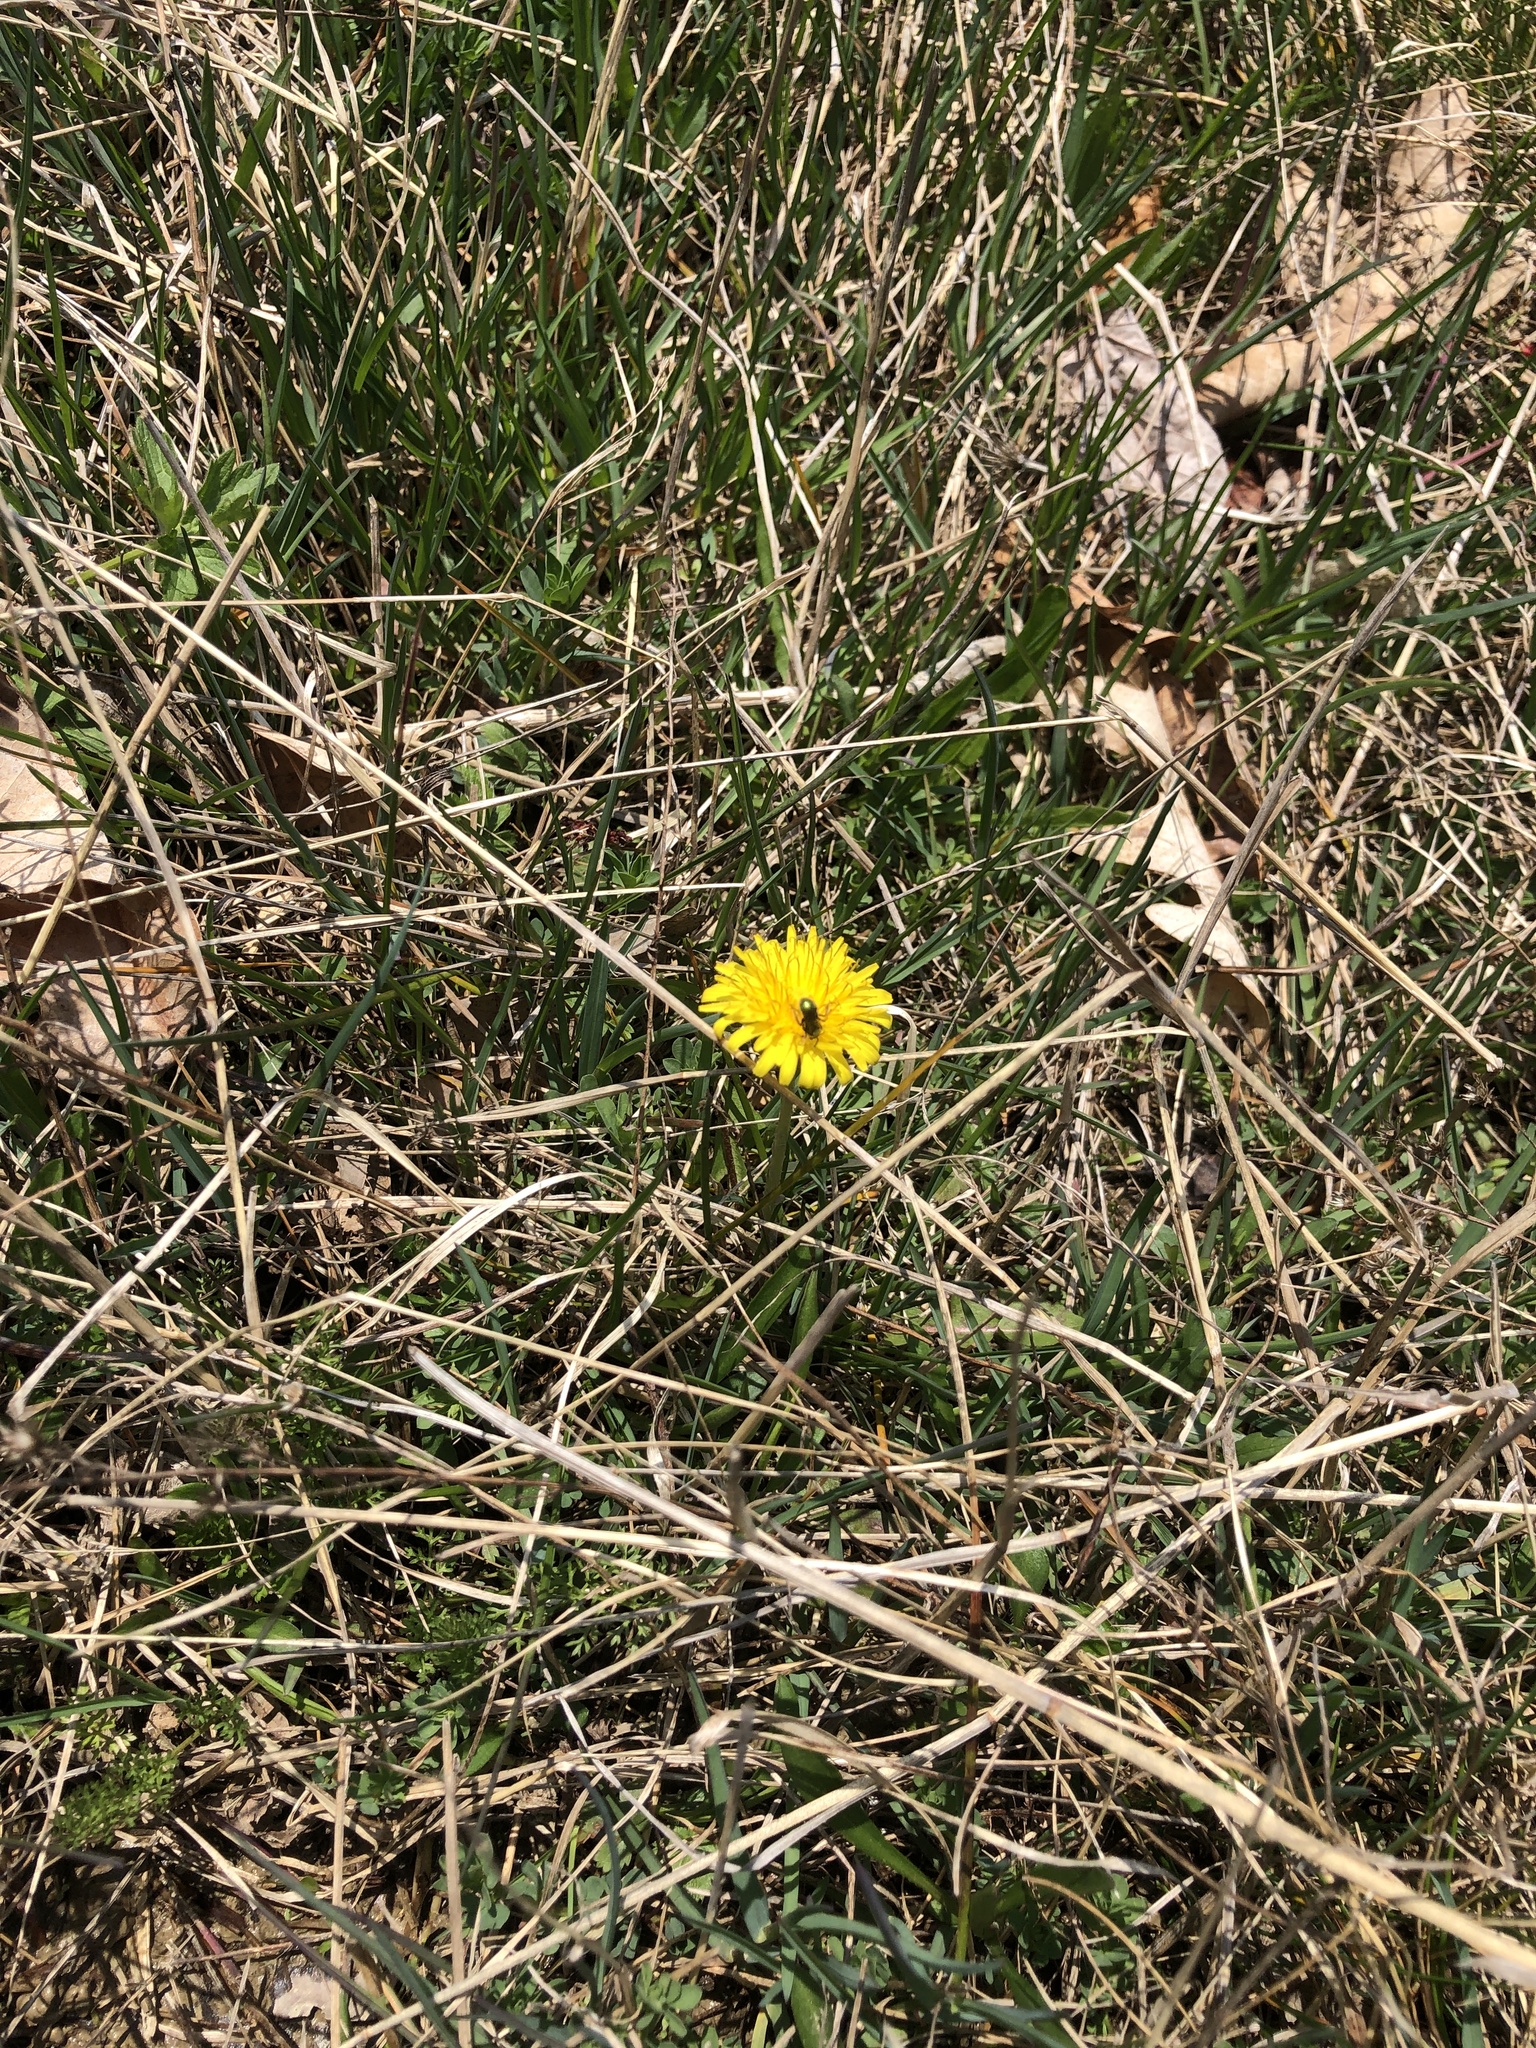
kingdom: Plantae
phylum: Tracheophyta
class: Magnoliopsida
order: Asterales
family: Asteraceae
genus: Taraxacum
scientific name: Taraxacum officinale
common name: Common dandelion
